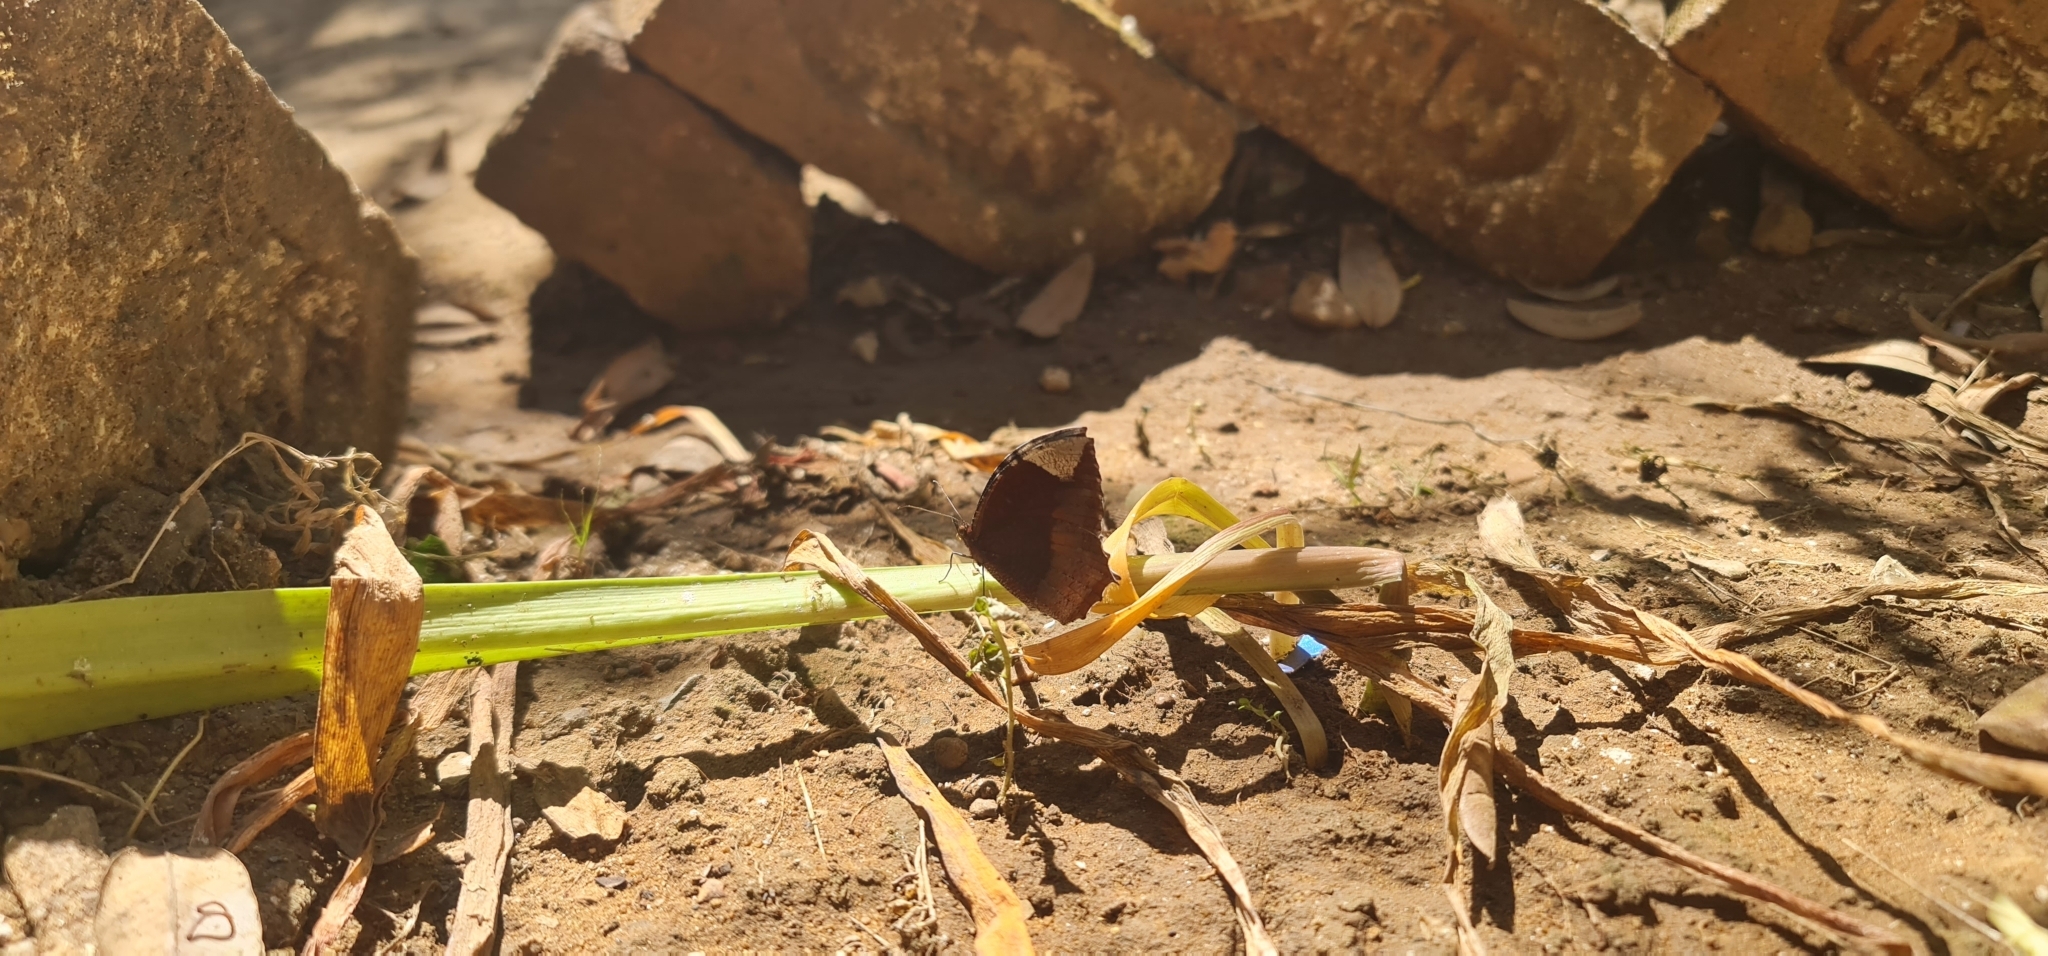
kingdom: Animalia
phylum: Arthropoda
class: Insecta
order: Lepidoptera
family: Nymphalidae
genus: Elymnias
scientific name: Elymnias hypermnestra
